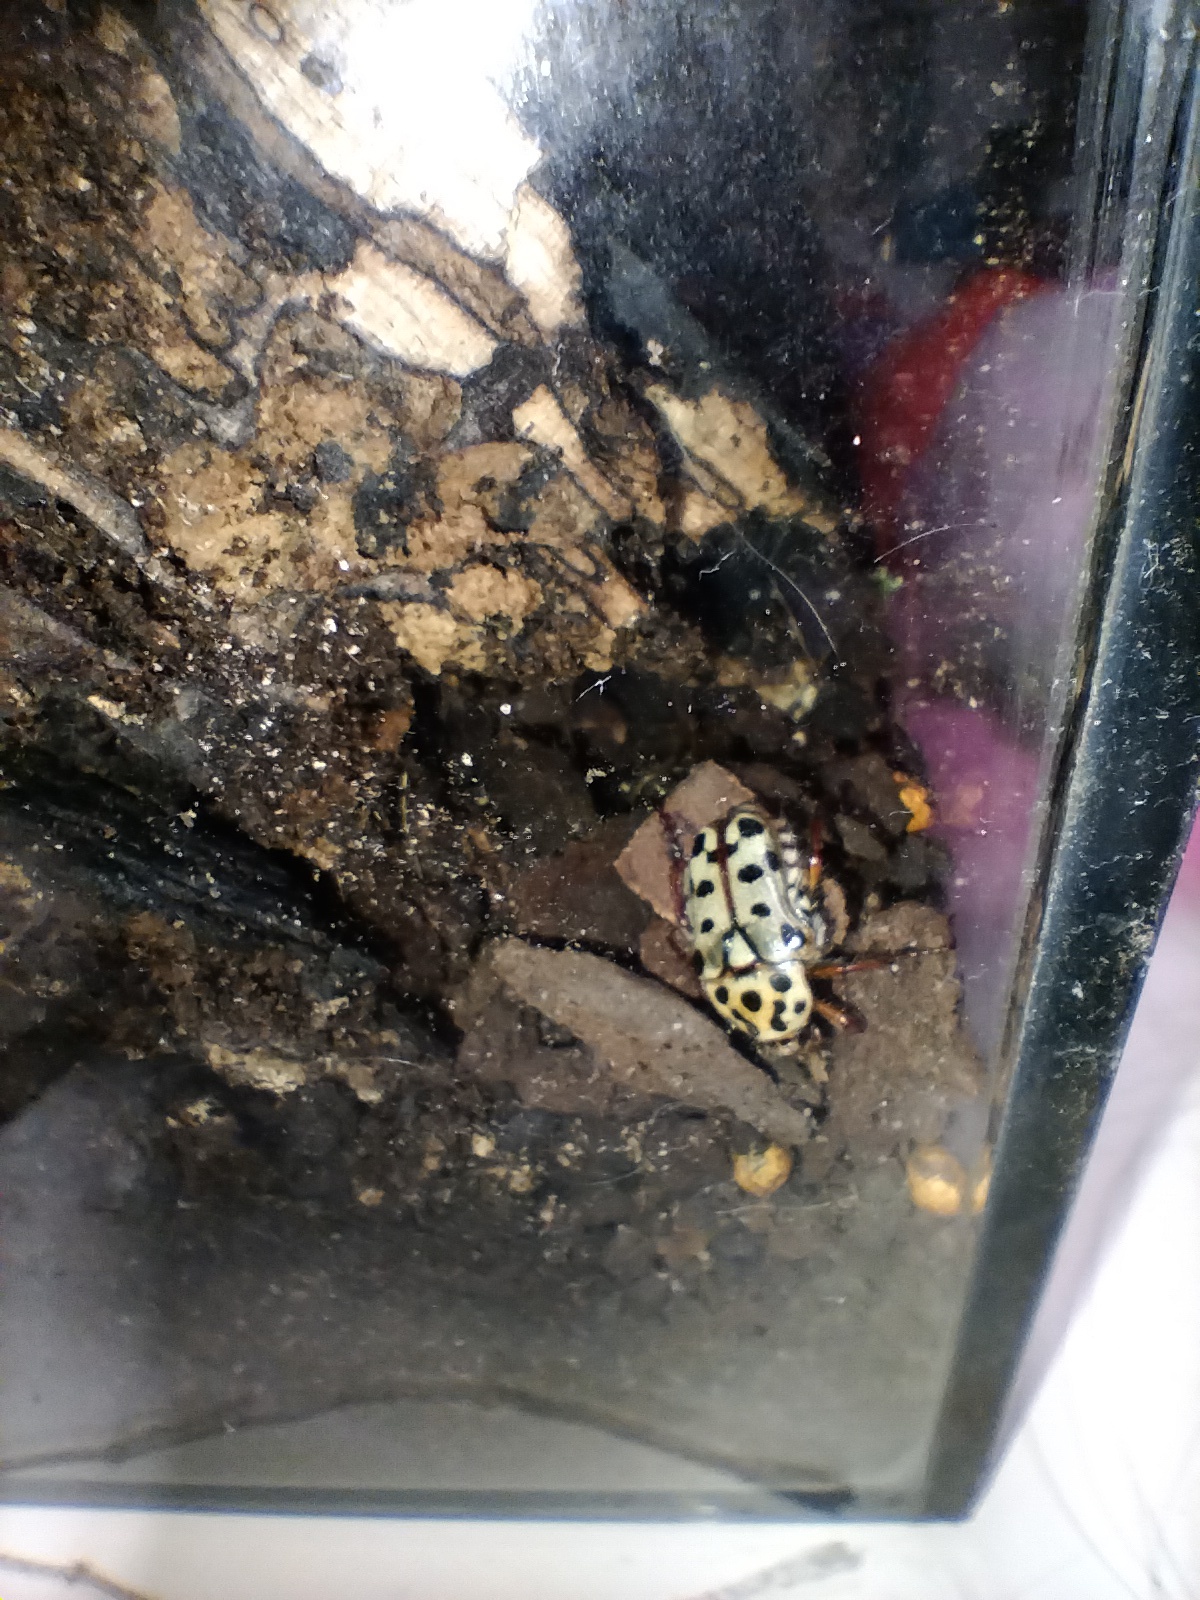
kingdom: Animalia
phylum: Arthropoda
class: Insecta
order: Coleoptera
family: Scarabaeidae
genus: Neorrhina
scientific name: Neorrhina punctatum
